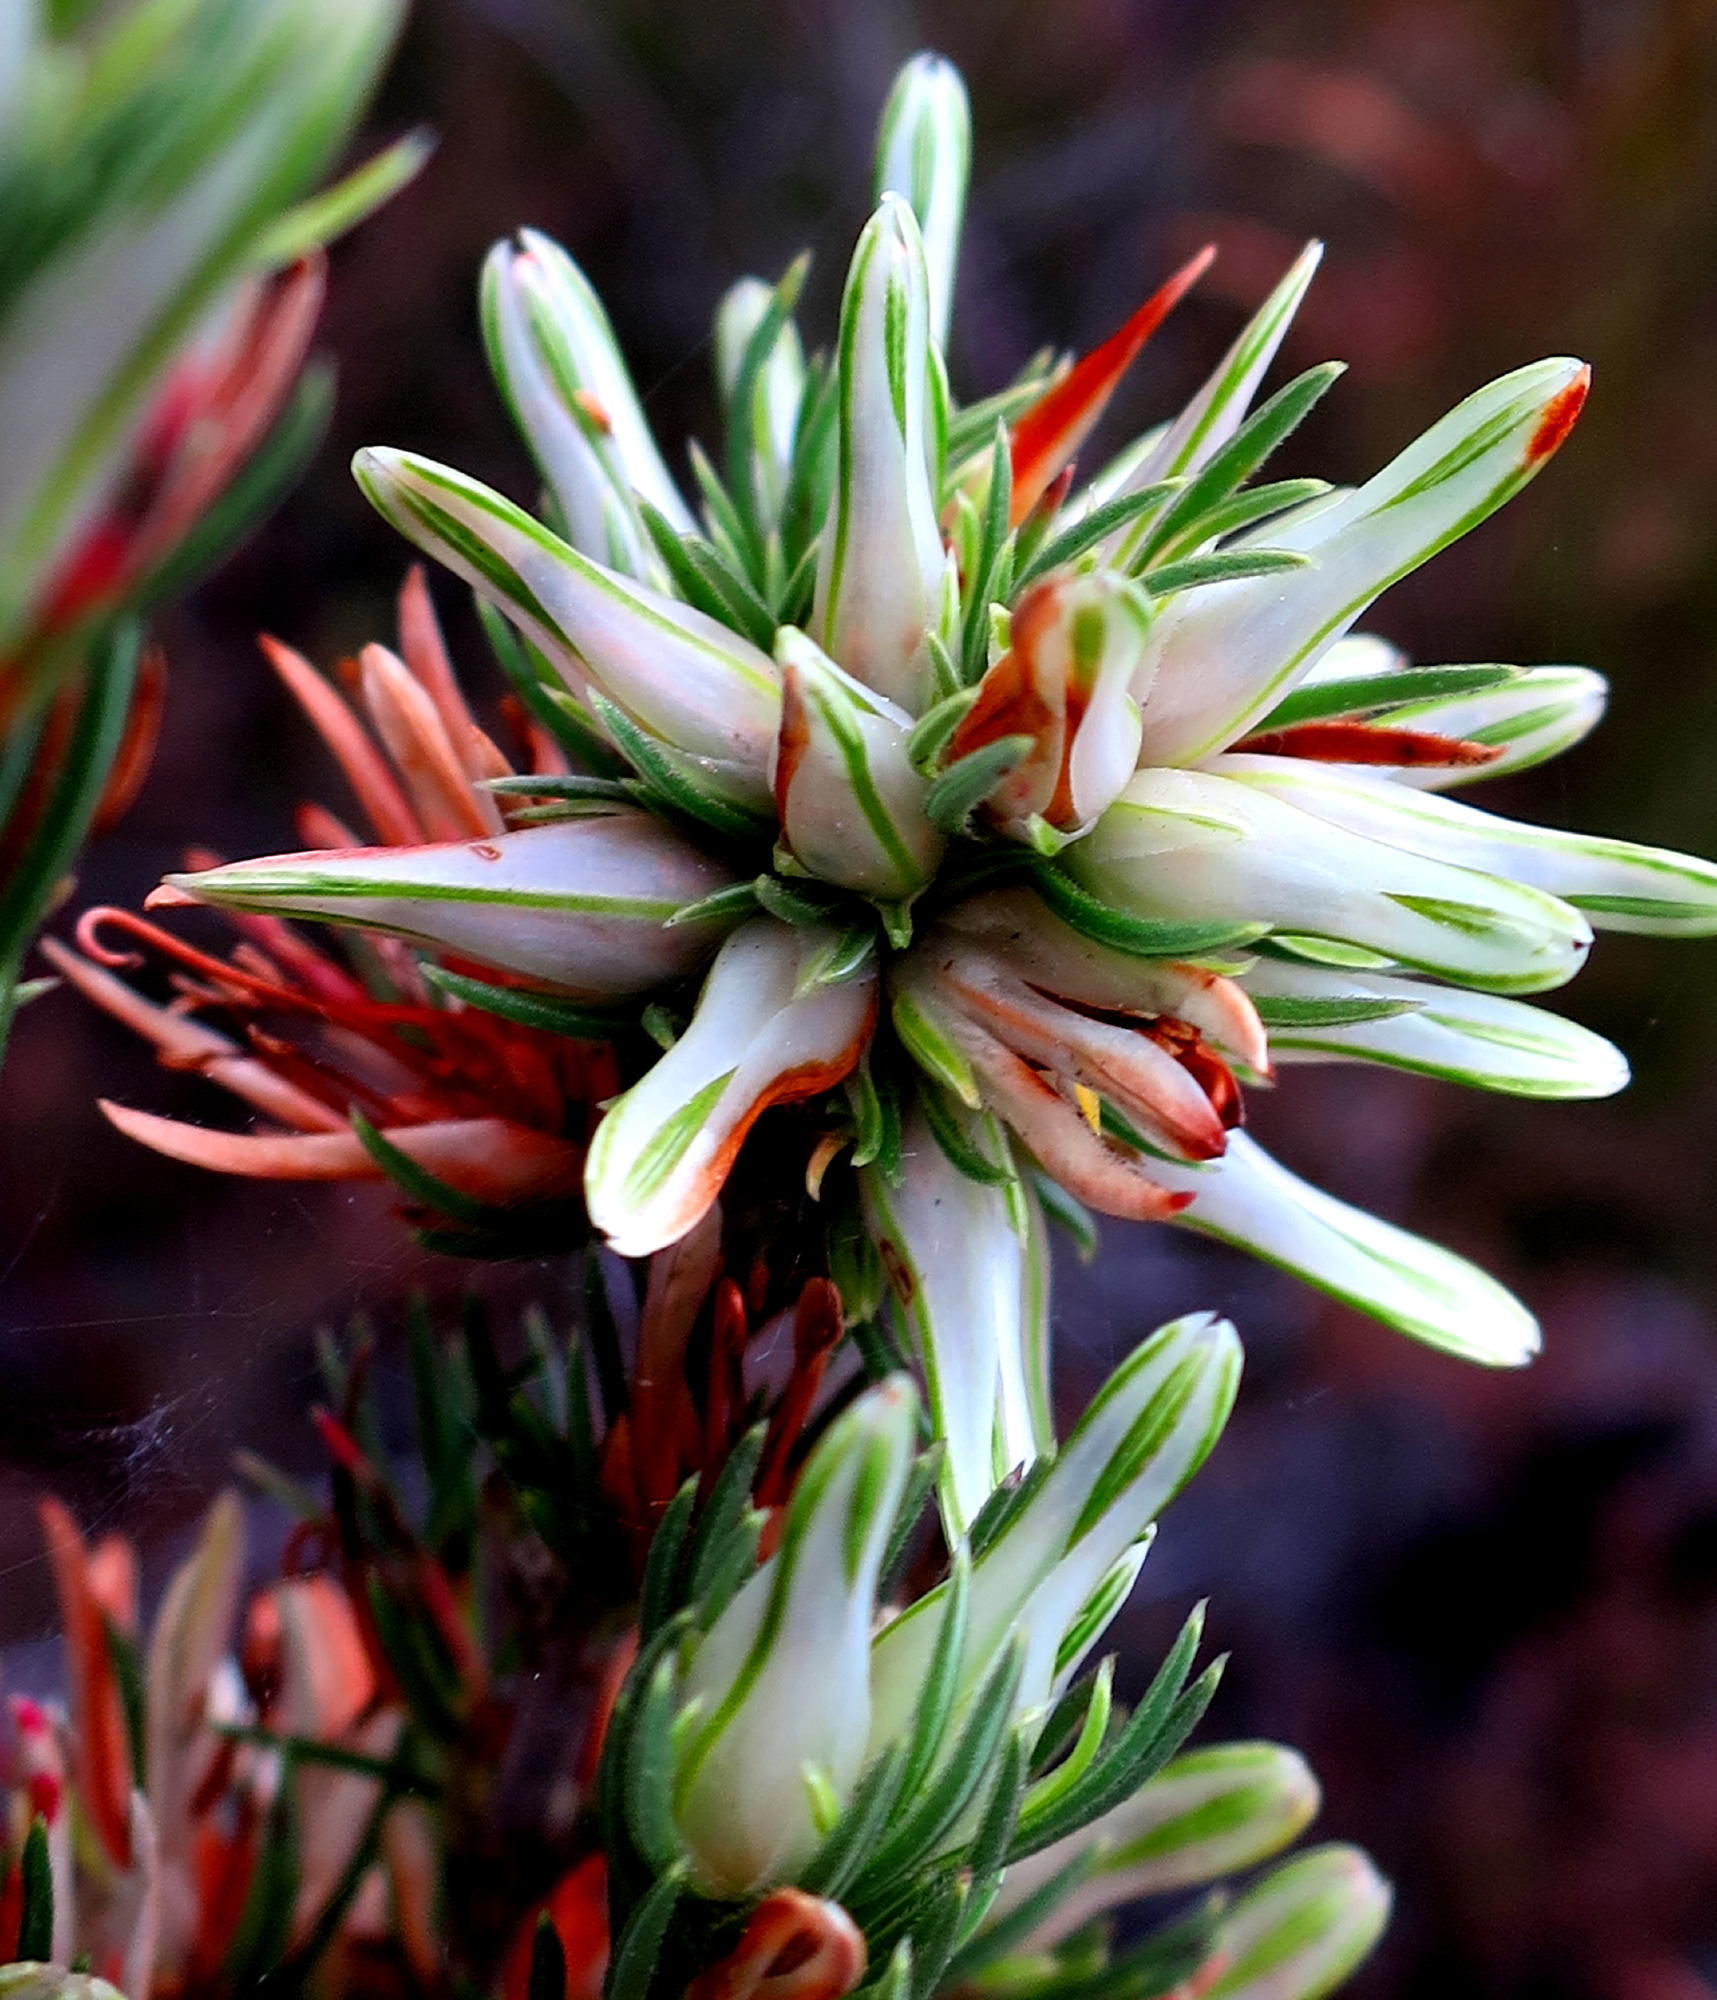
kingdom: Plantae
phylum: Tracheophyta
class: Magnoliopsida
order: Ericales
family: Ericaceae
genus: Erica
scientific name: Erica nabea
